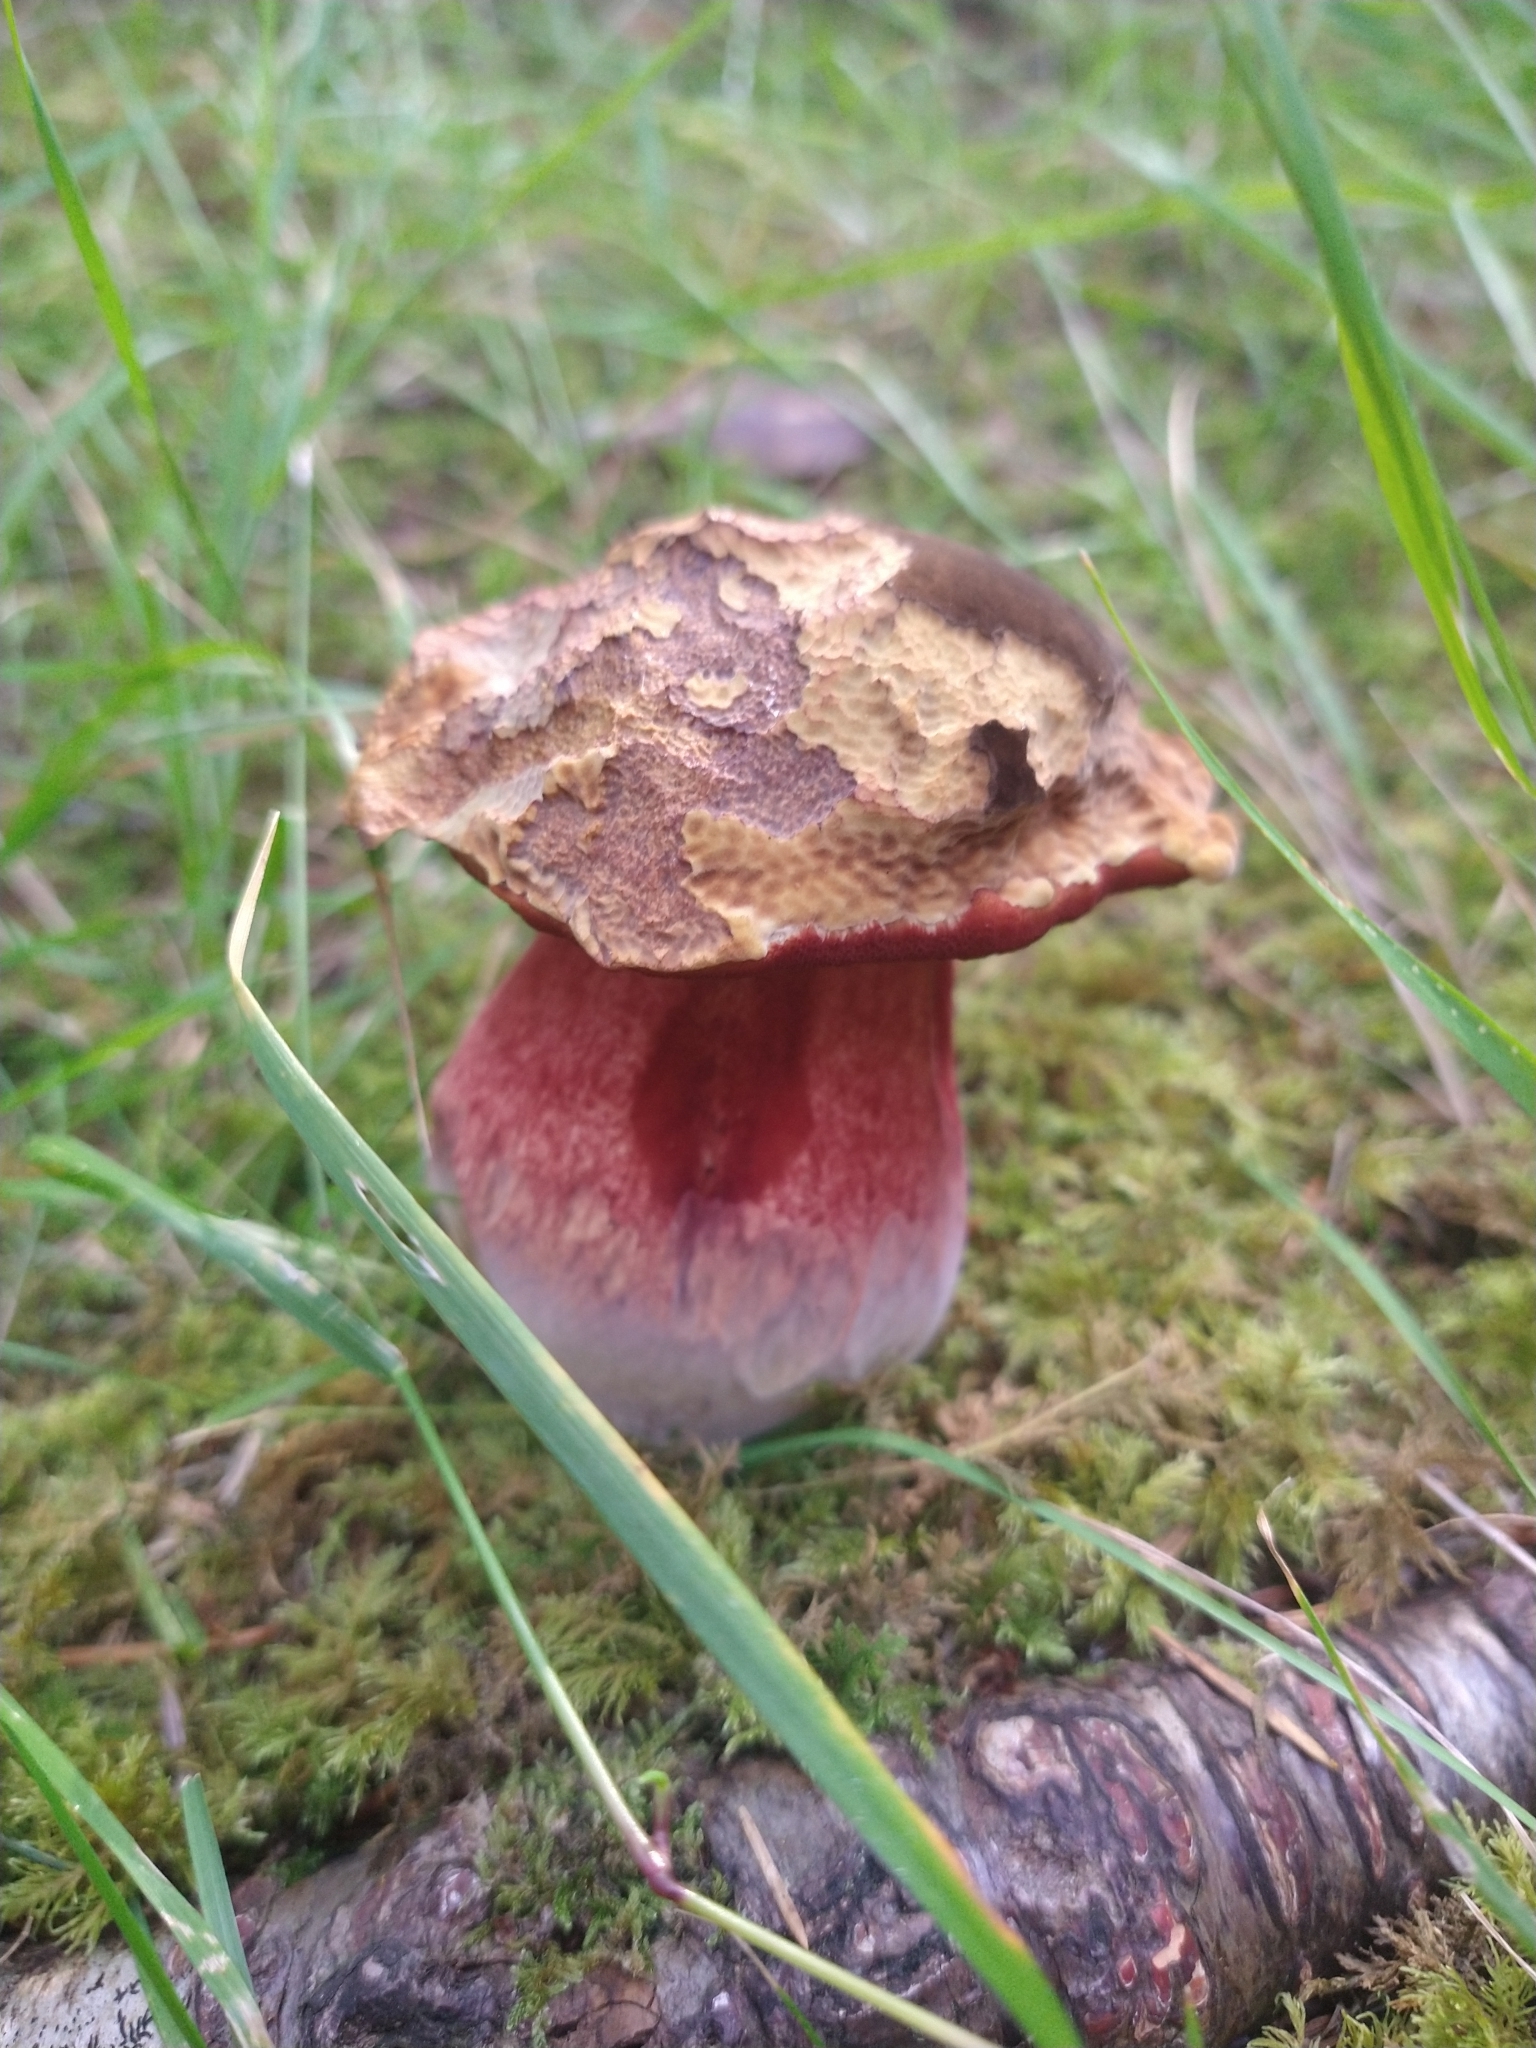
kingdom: Fungi
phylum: Basidiomycota
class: Agaricomycetes
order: Boletales
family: Boletaceae
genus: Neoboletus
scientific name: Neoboletus luridiformis
